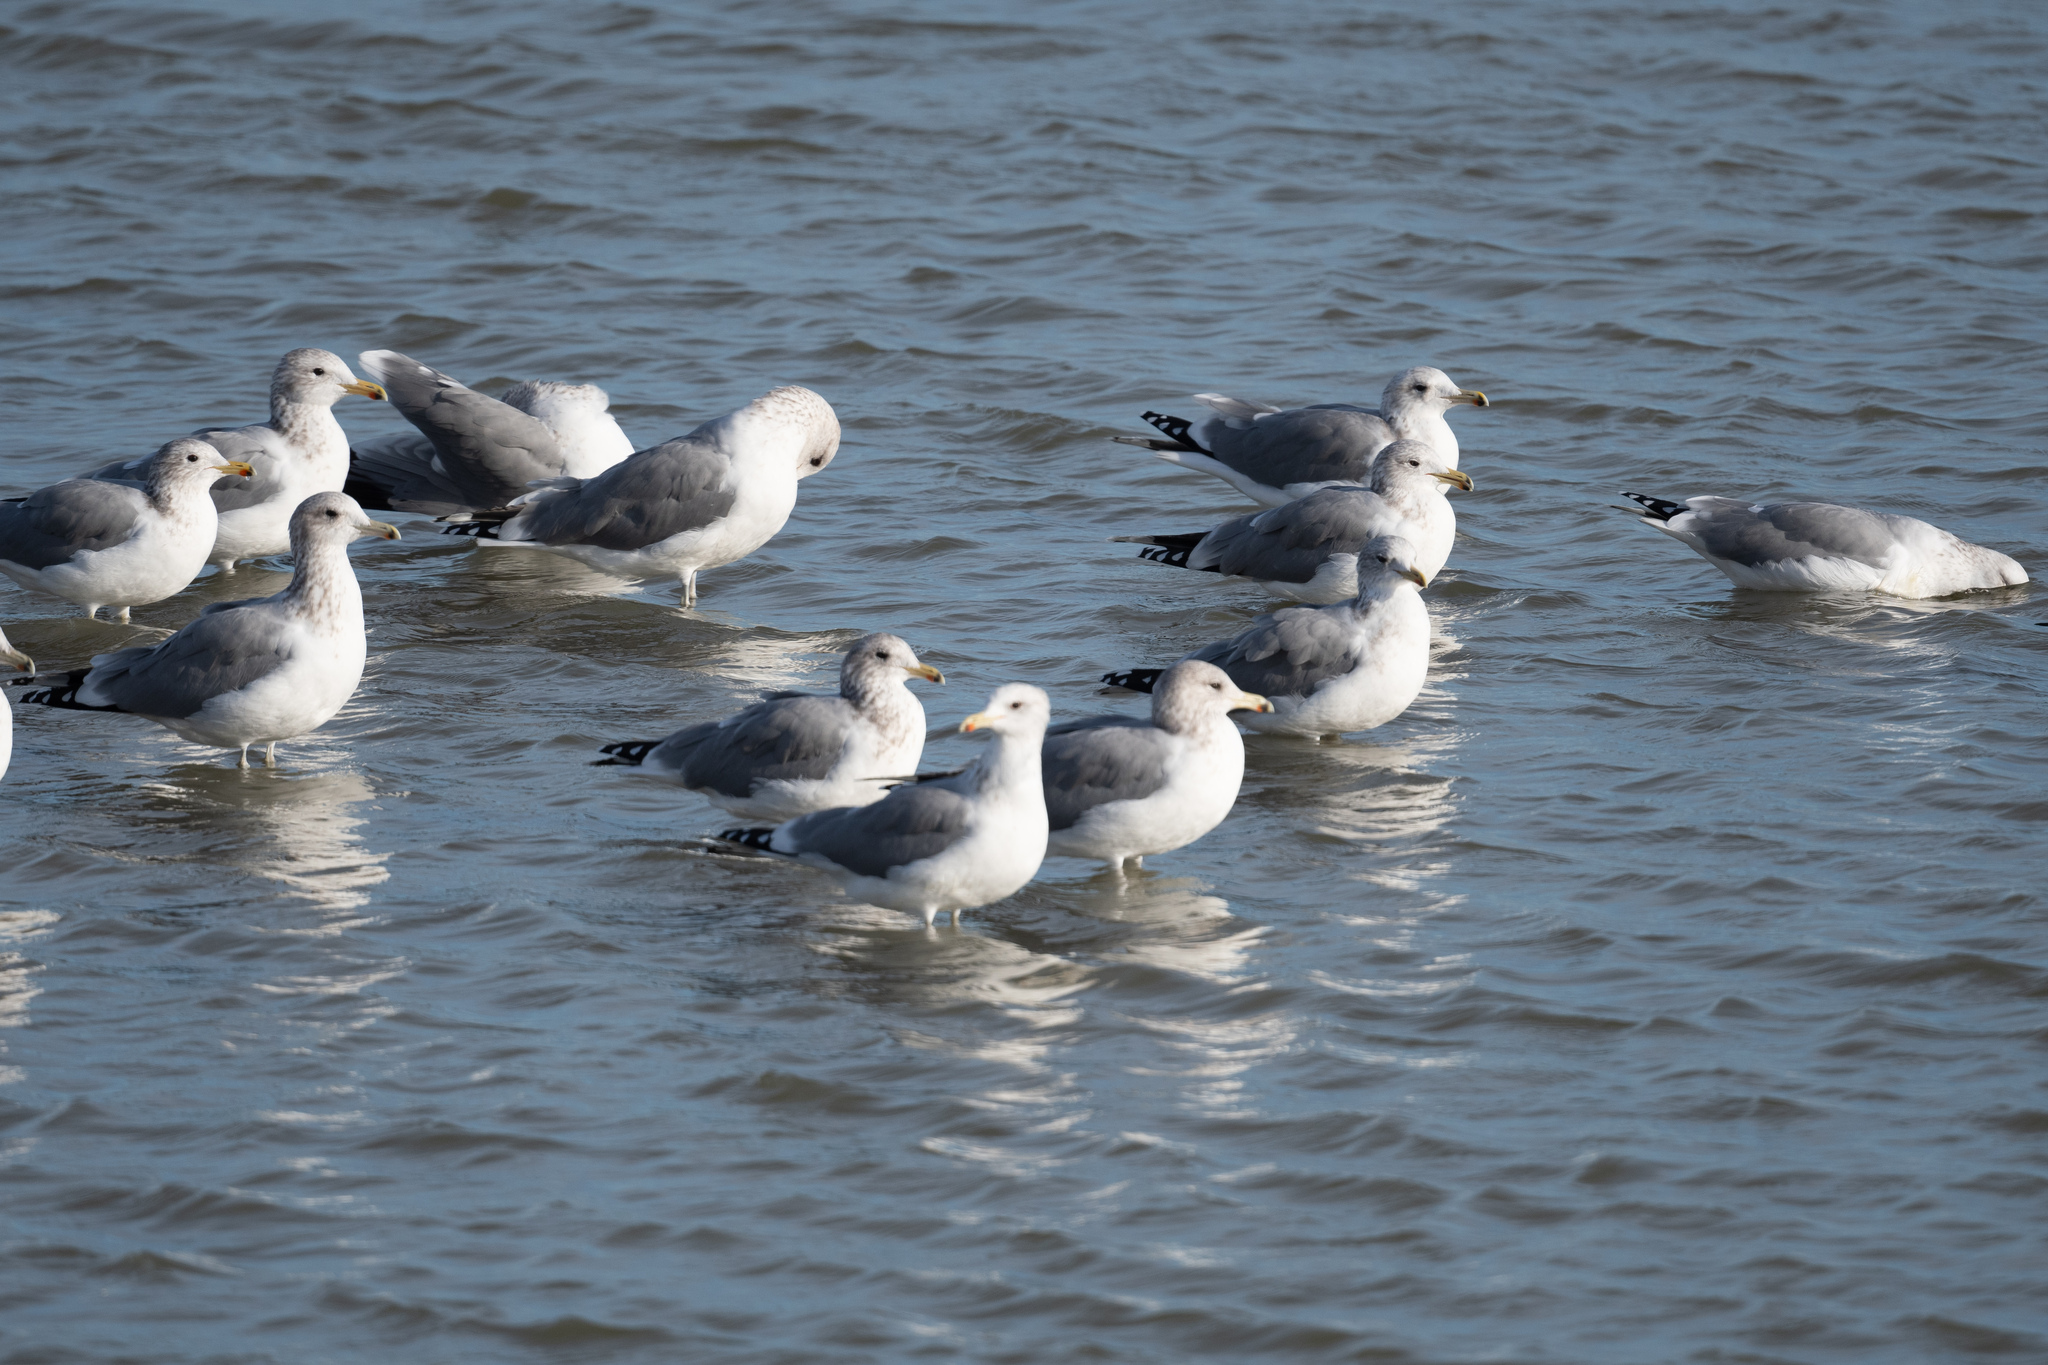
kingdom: Animalia
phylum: Chordata
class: Aves
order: Charadriiformes
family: Laridae
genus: Larus
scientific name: Larus californicus
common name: California gull
